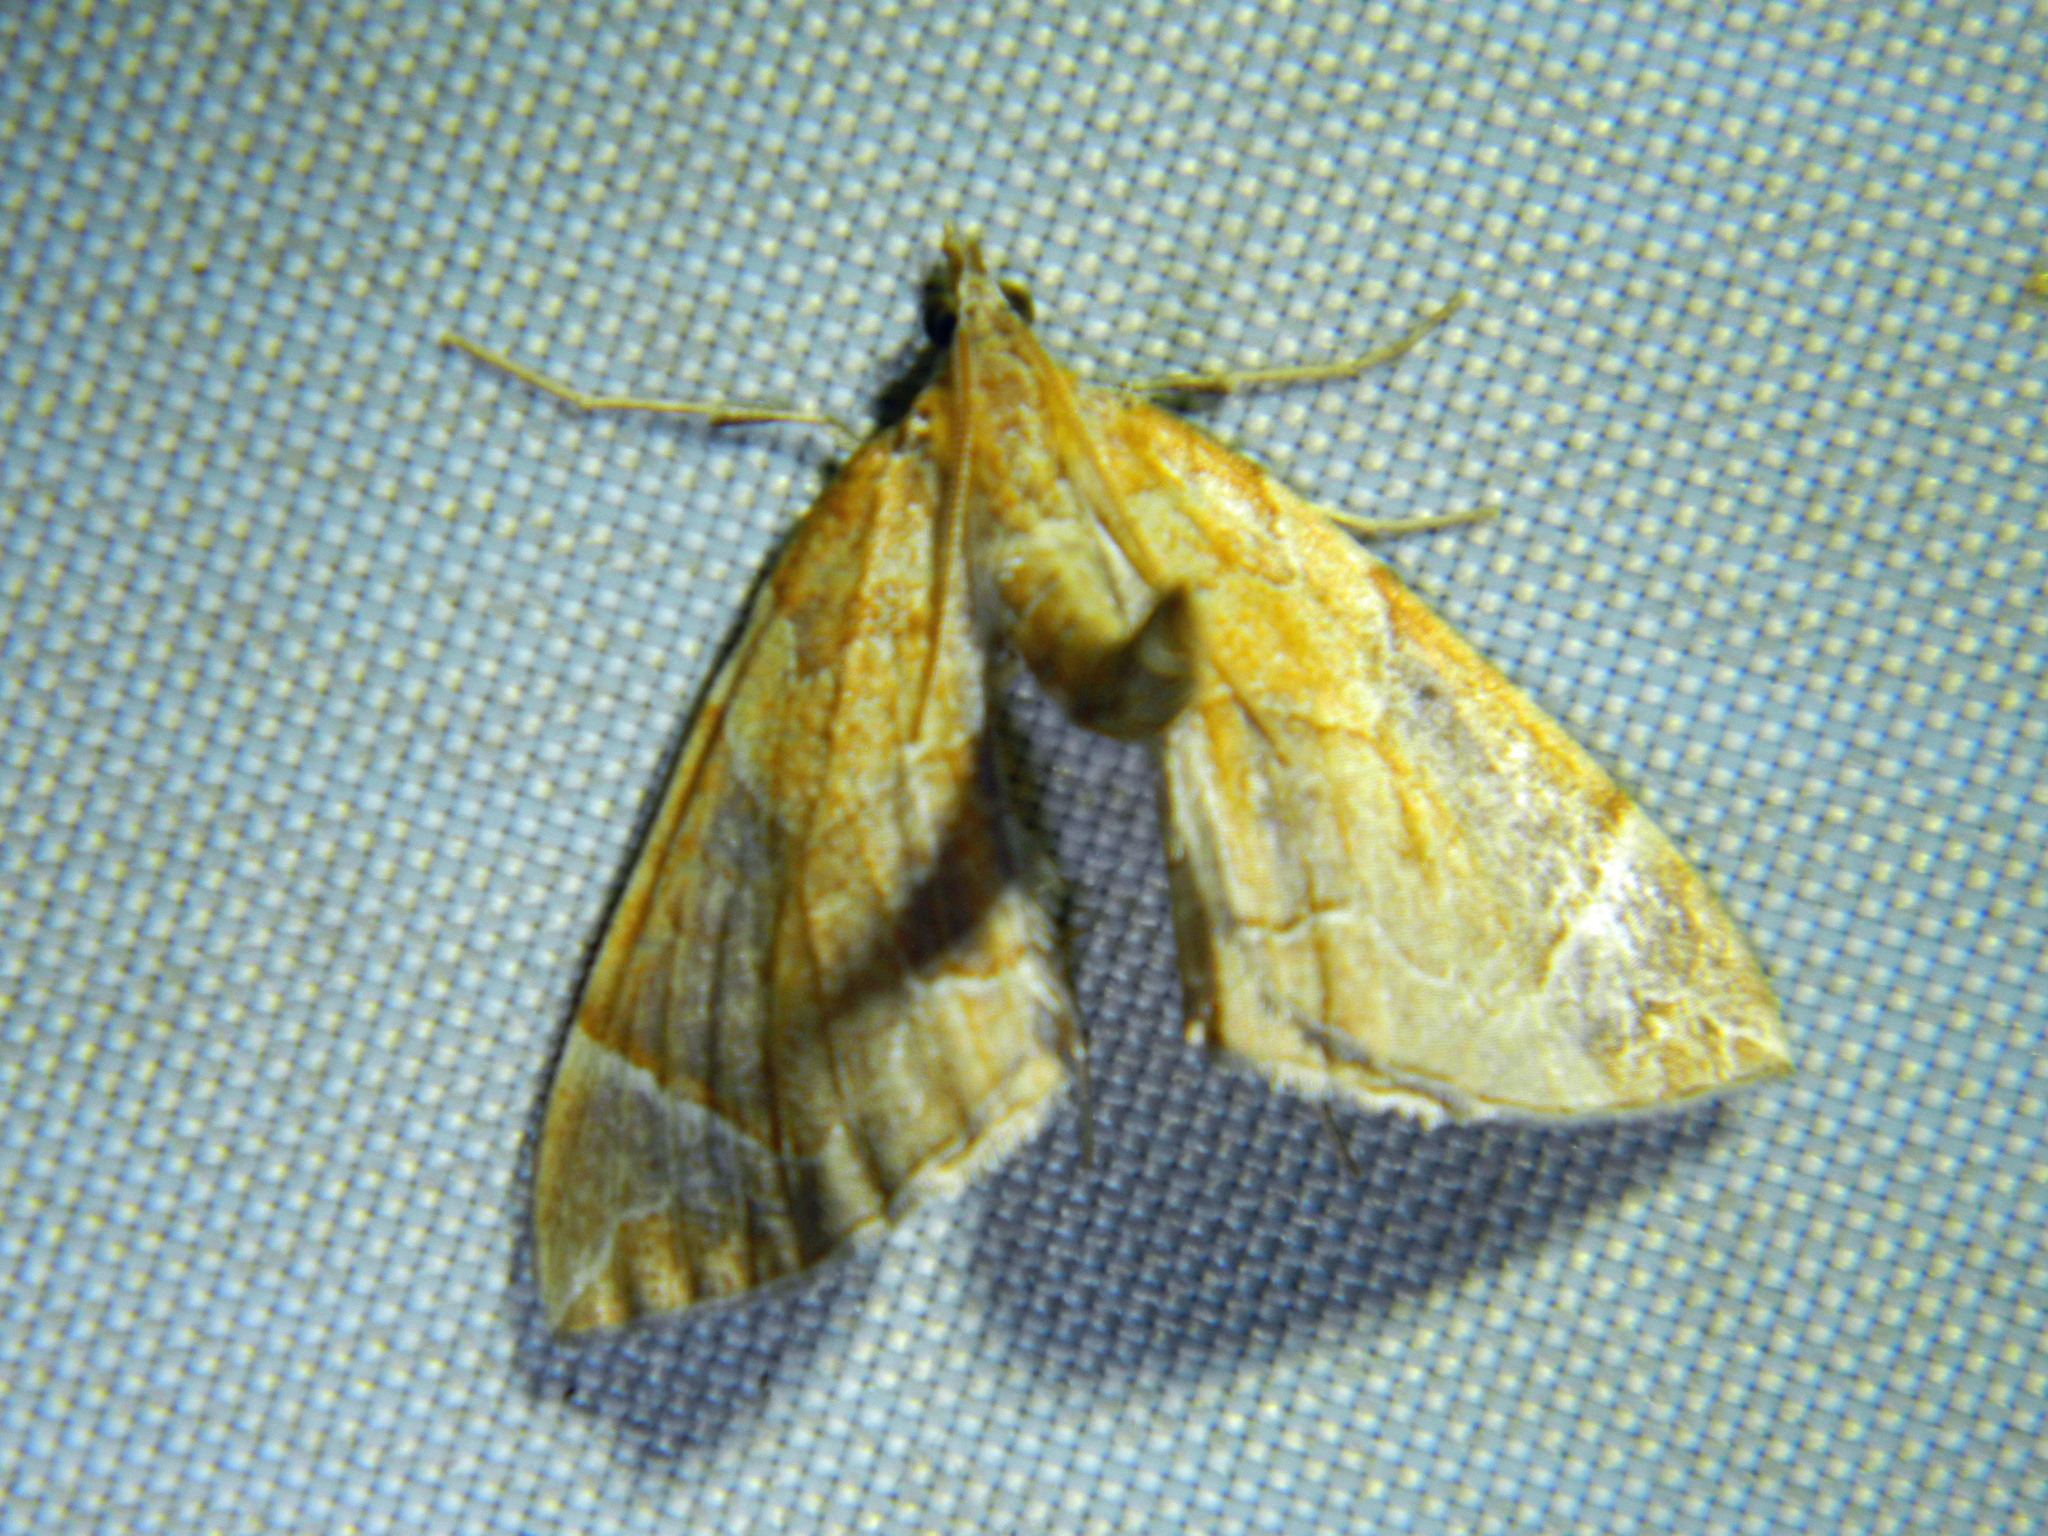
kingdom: Animalia
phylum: Arthropoda
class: Insecta
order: Lepidoptera
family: Geometridae
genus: Eulithis
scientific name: Eulithis testata
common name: Chevron
